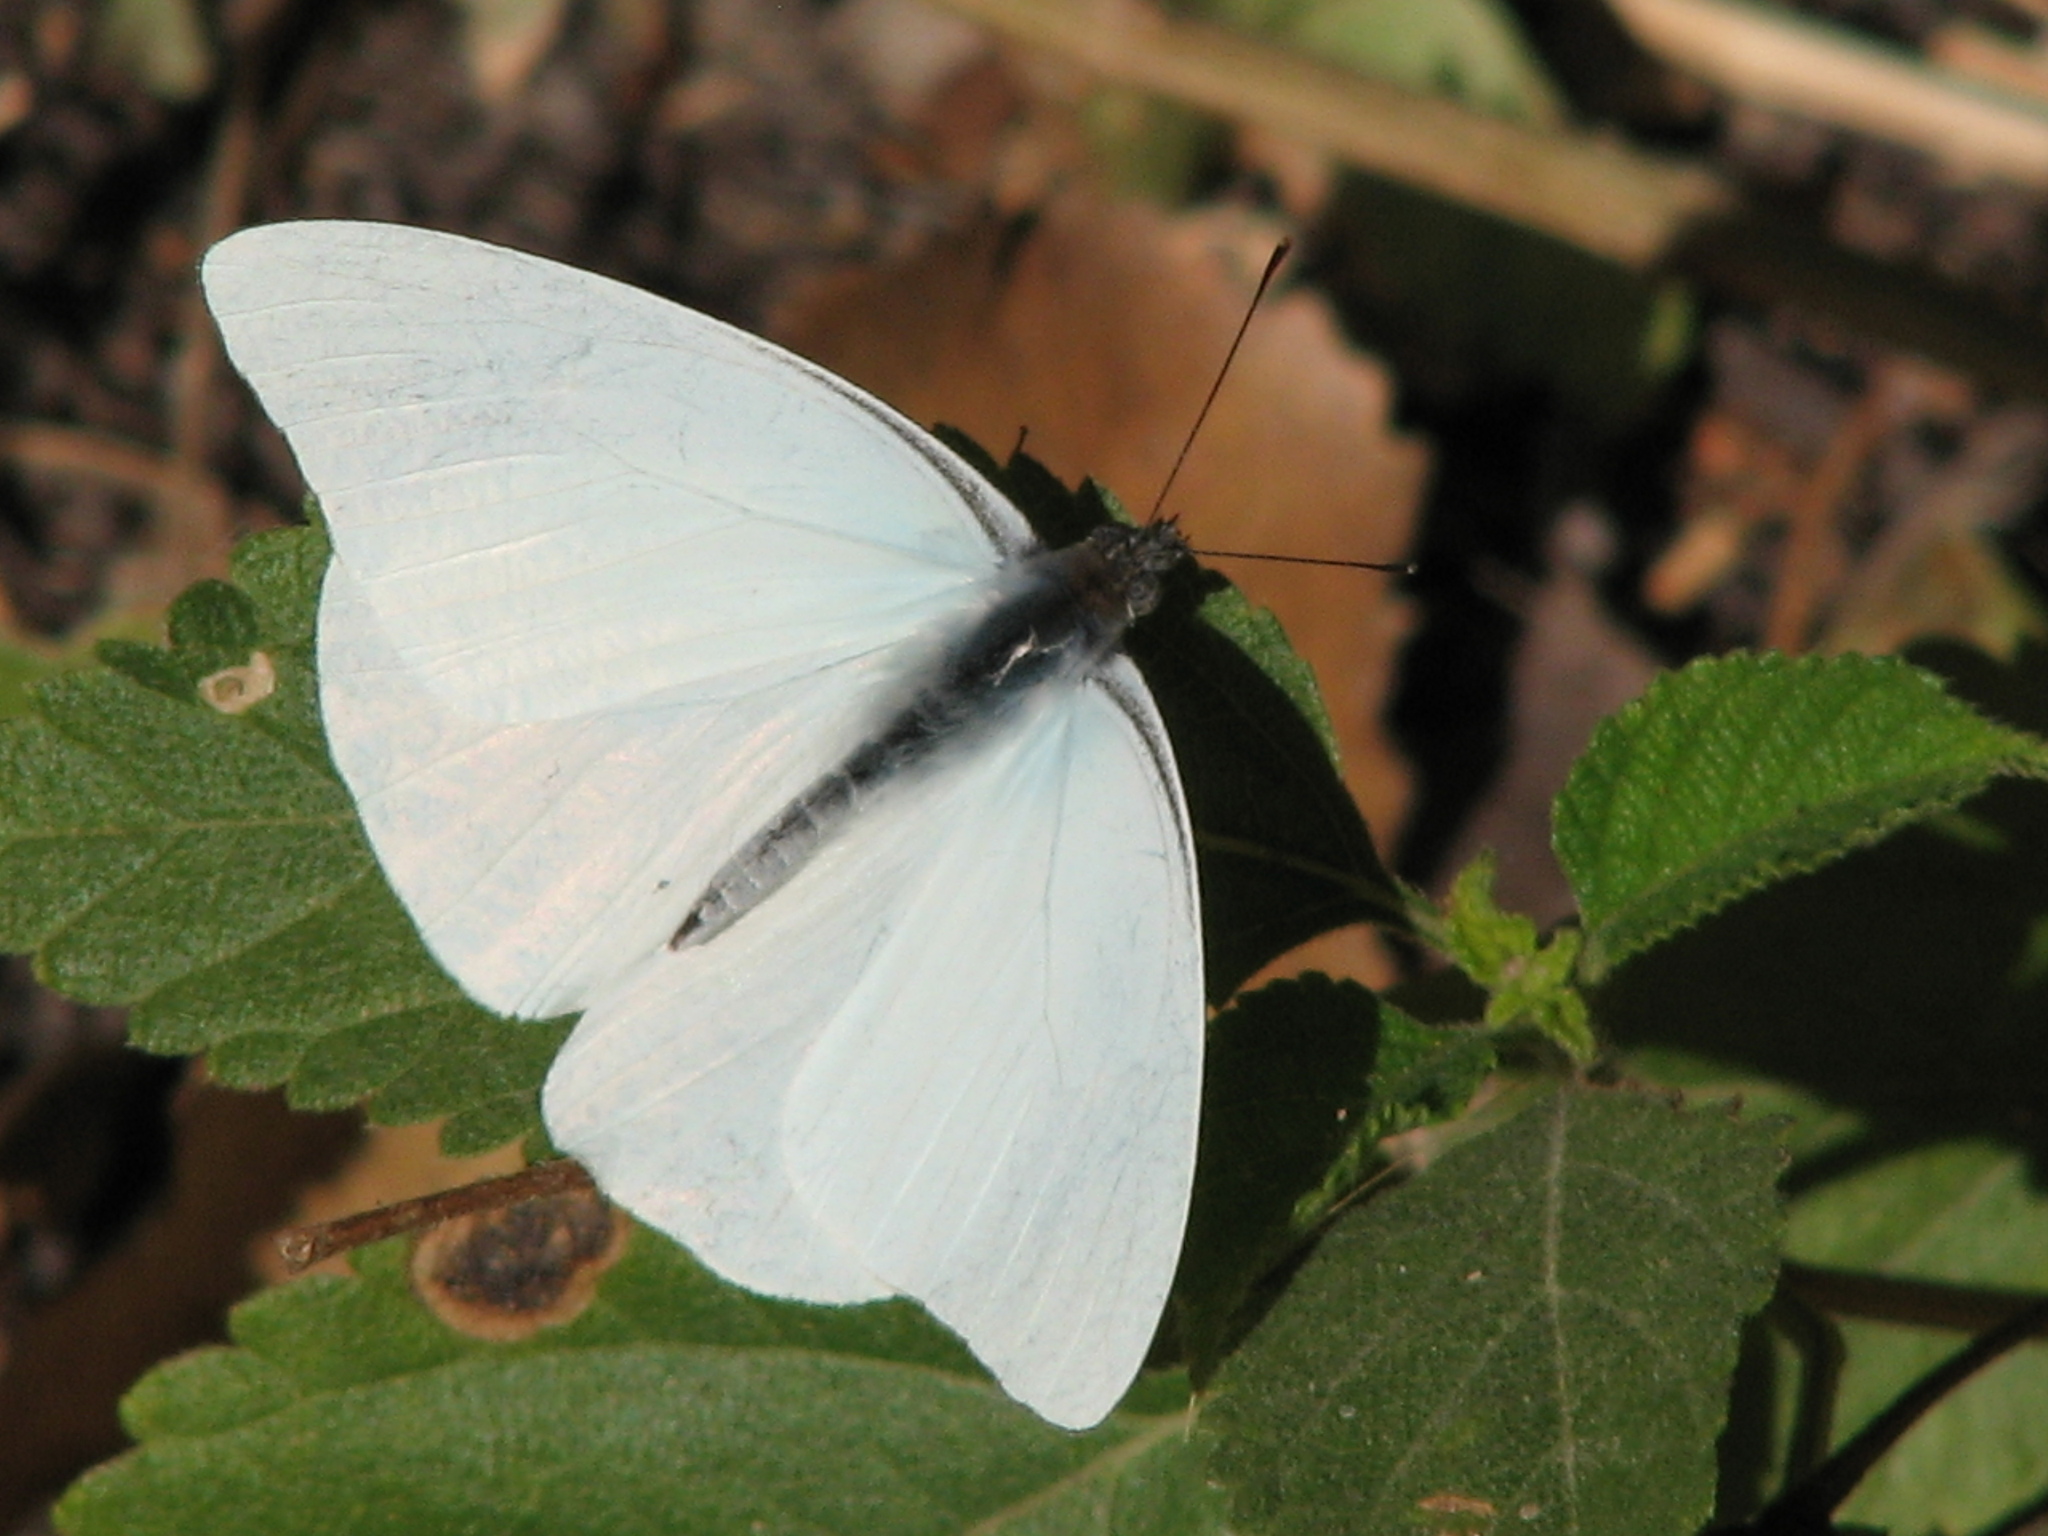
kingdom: Animalia
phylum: Arthropoda
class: Insecta
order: Lepidoptera
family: Pieridae
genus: Glutophrissa
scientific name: Glutophrissa drusilla
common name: Florida white
